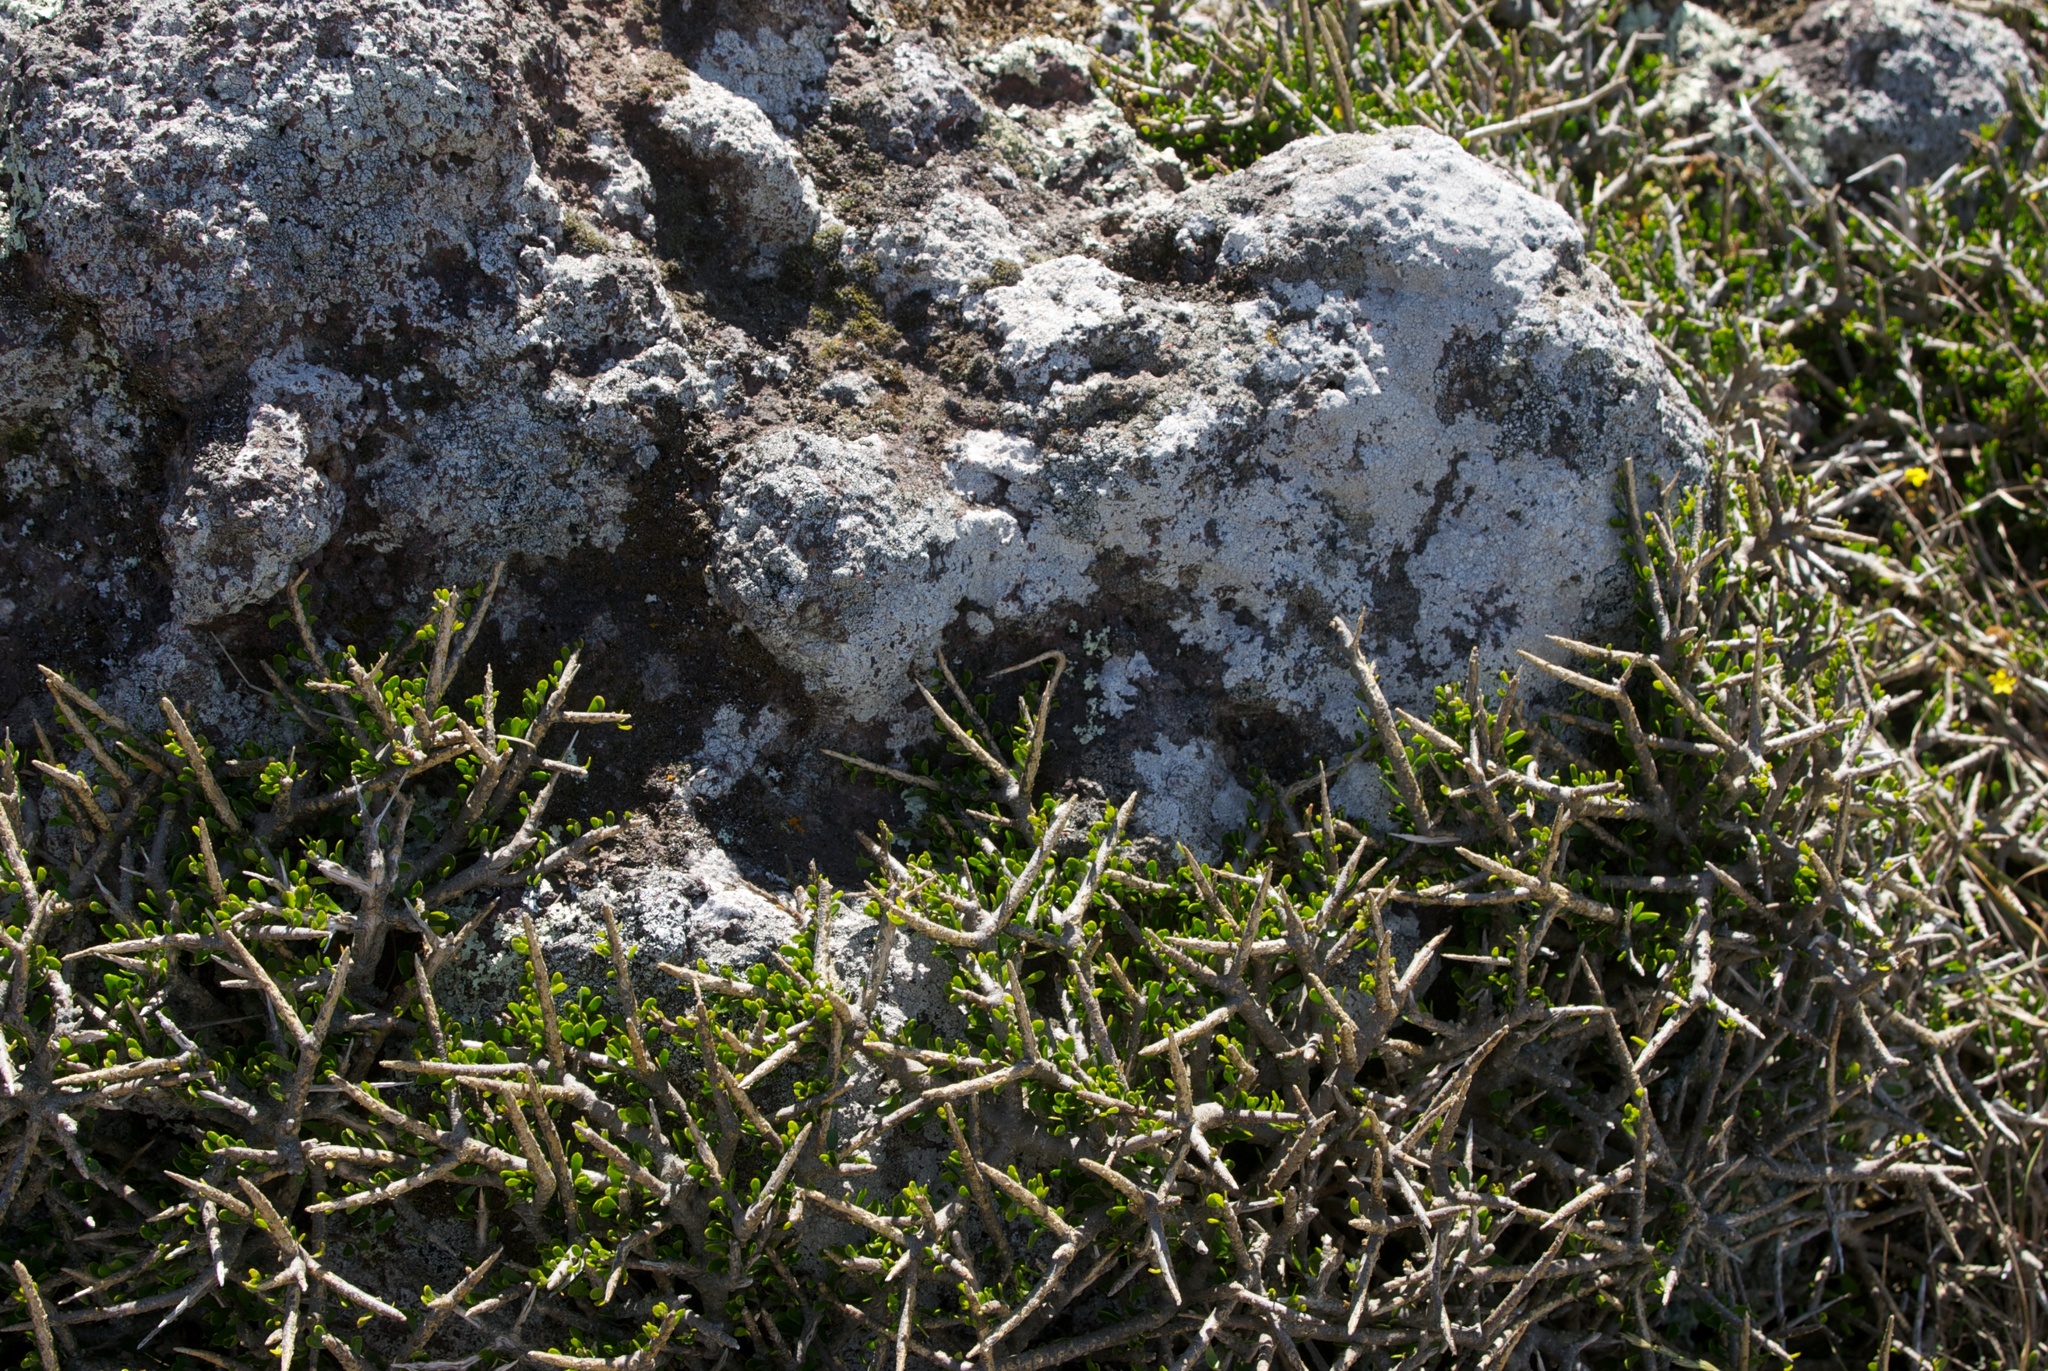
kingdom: Plantae
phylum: Tracheophyta
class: Magnoliopsida
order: Malpighiales
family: Violaceae
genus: Melicytus
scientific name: Melicytus alpinus
